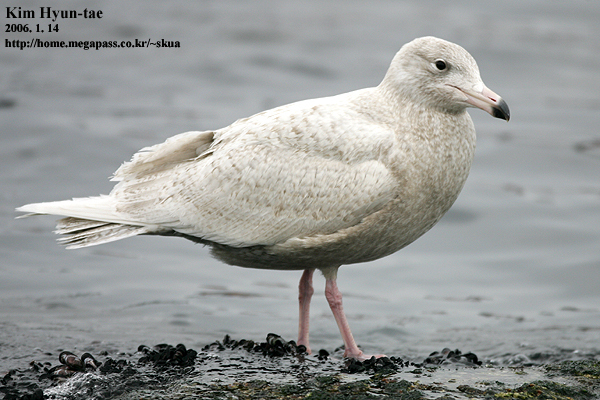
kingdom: Animalia
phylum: Chordata
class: Aves
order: Charadriiformes
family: Laridae
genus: Larus
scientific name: Larus hyperboreus
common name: Glaucous gull
